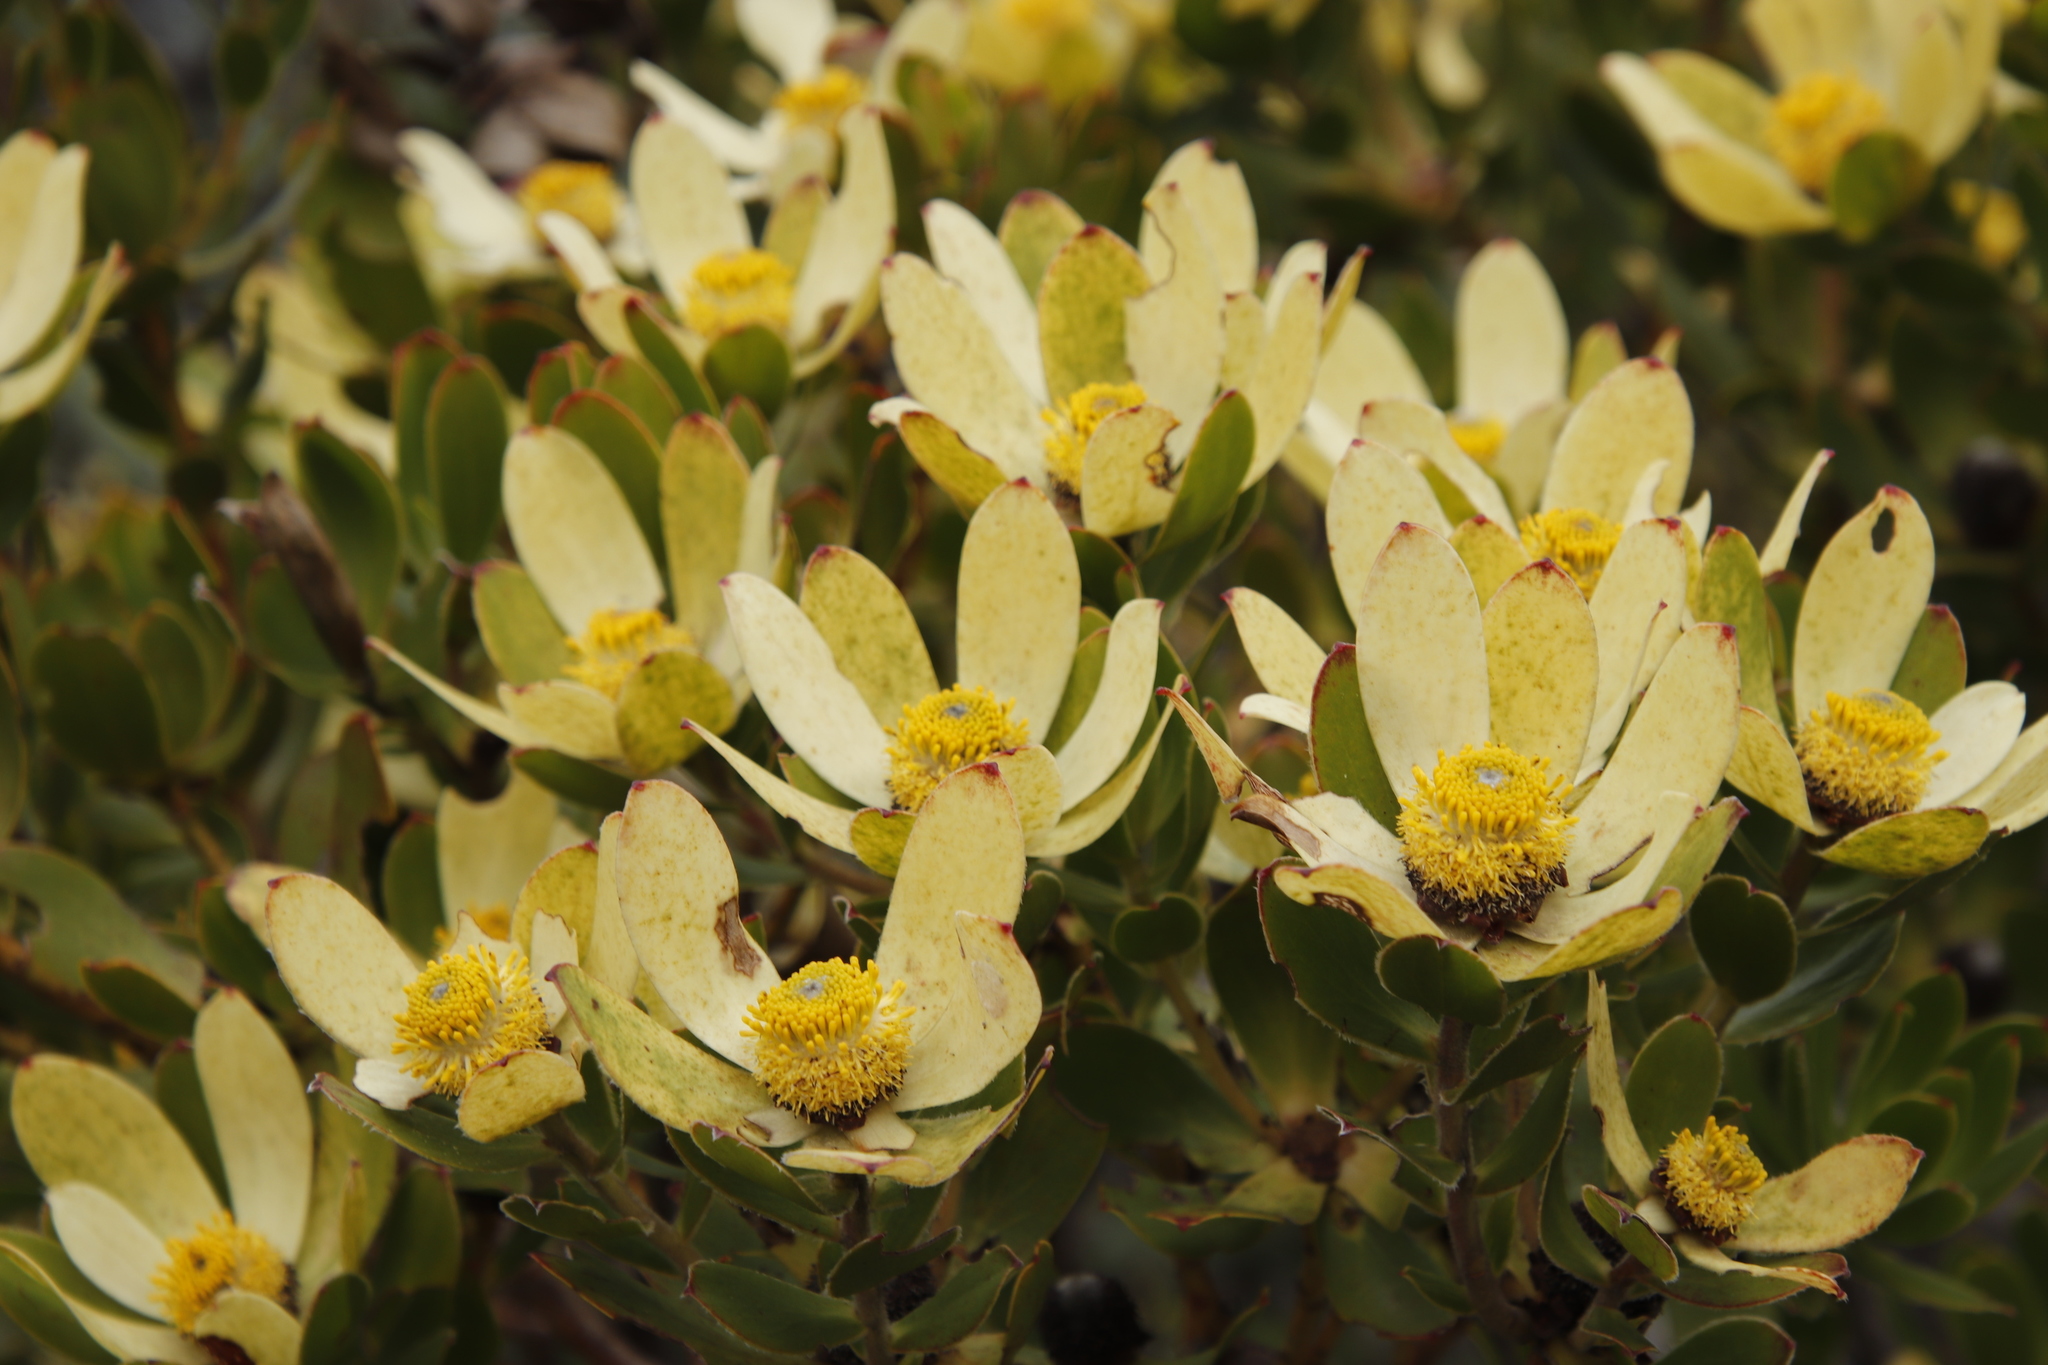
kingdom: Plantae
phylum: Tracheophyta
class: Magnoliopsida
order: Proteales
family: Proteaceae
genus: Leucadendron
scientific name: Leucadendron strobilinum
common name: Mountain rose
